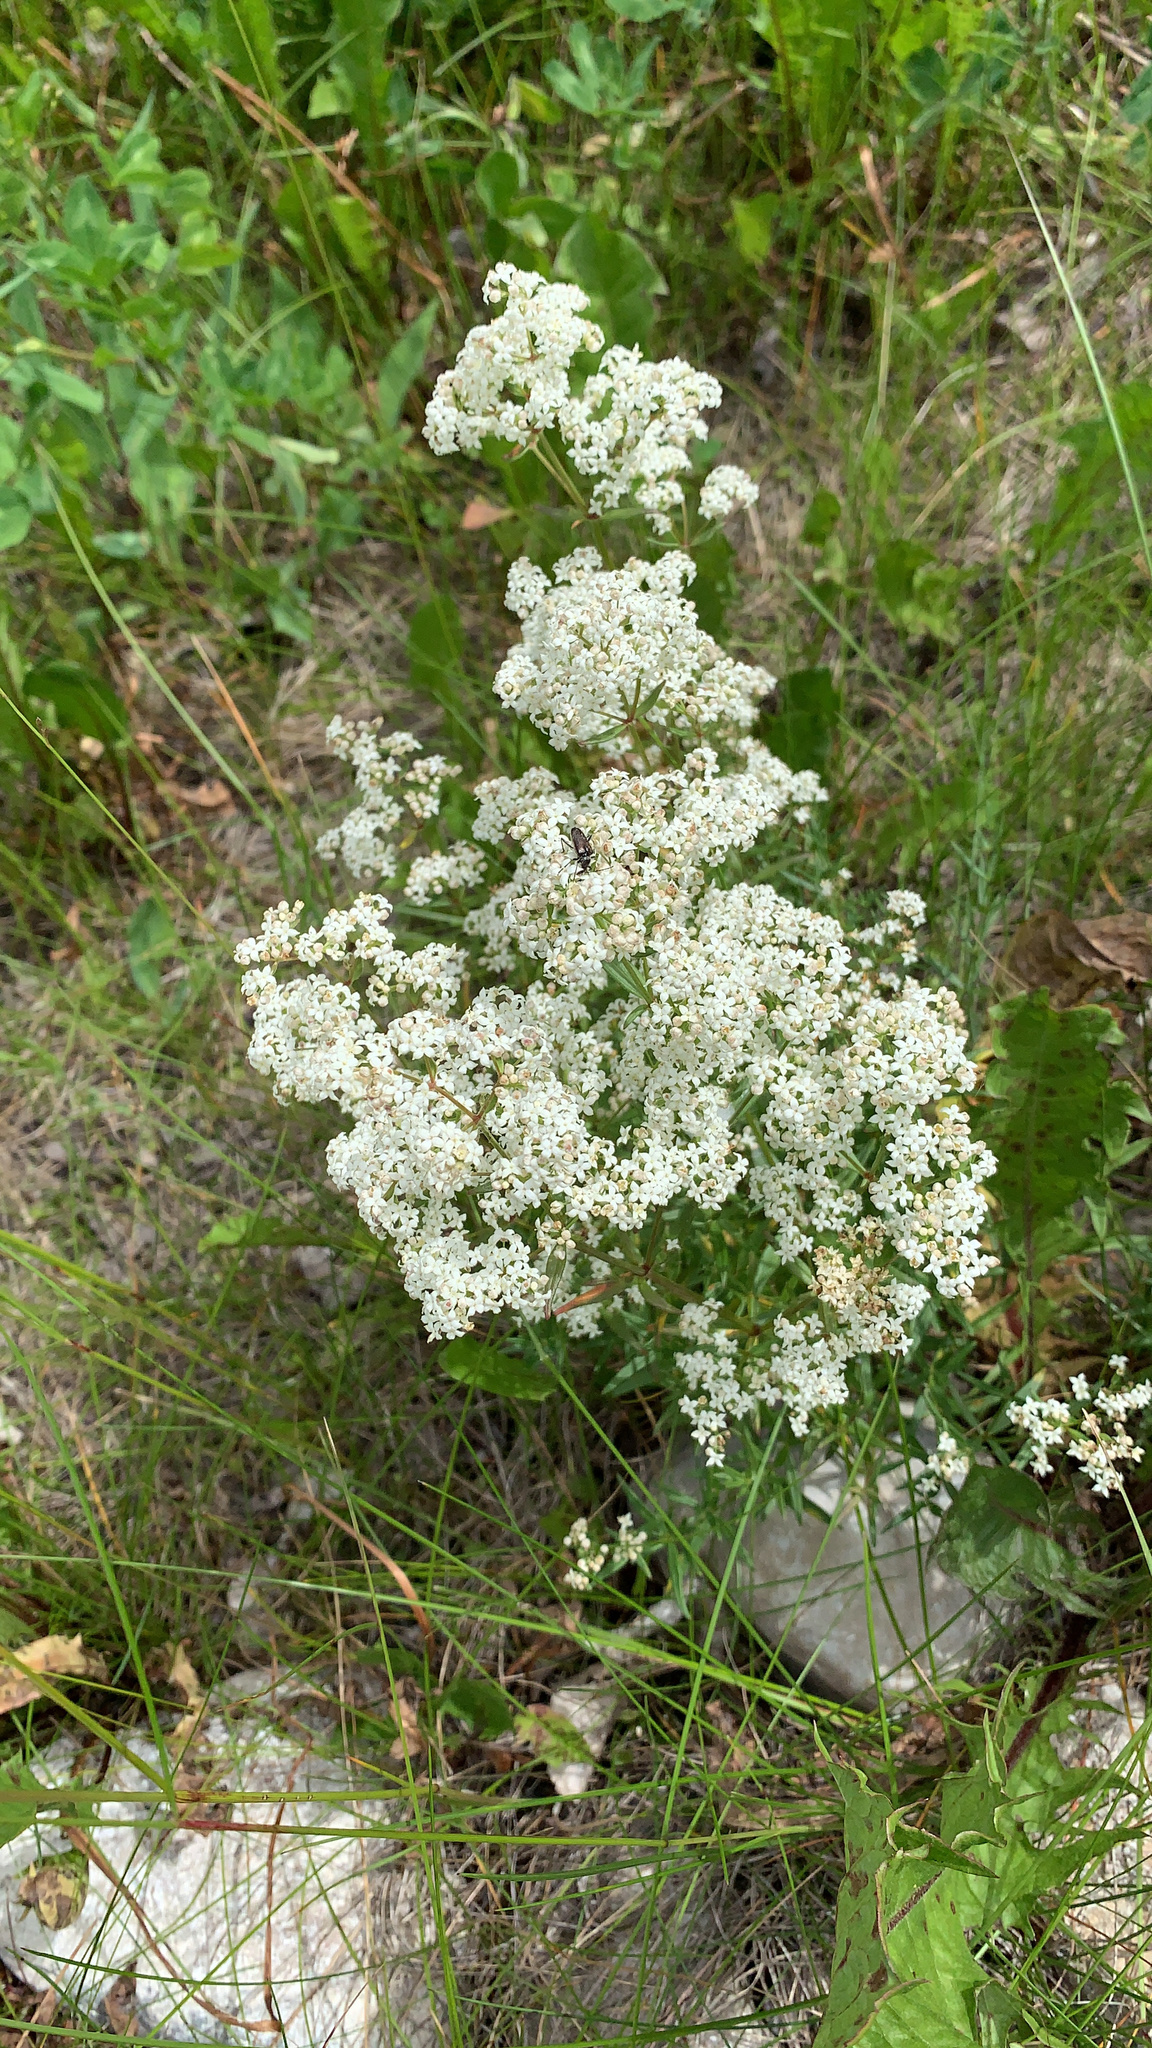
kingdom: Plantae
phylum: Tracheophyta
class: Magnoliopsida
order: Gentianales
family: Rubiaceae
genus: Galium
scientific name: Galium boreale
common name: Northern bedstraw
